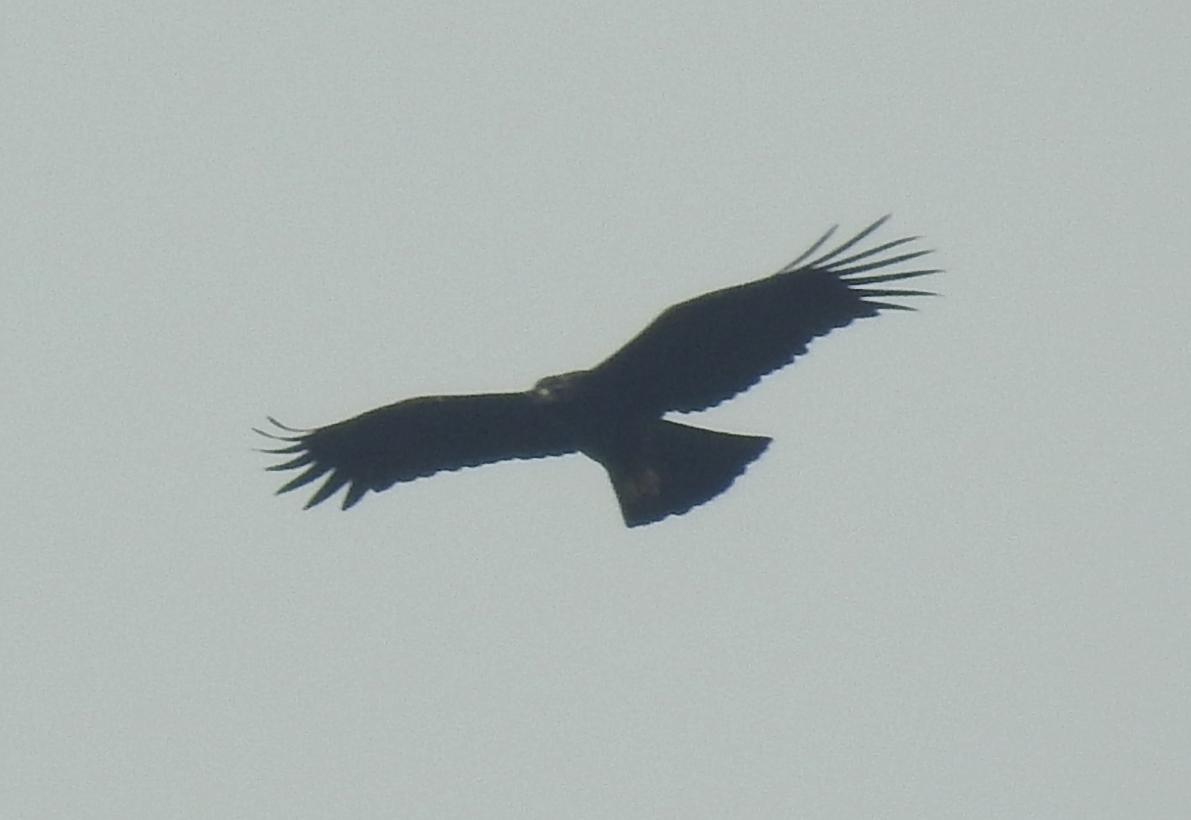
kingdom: Animalia
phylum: Chordata
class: Aves
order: Accipitriformes
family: Accipitridae
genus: Ictinaetus
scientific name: Ictinaetus malayensis
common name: Black eagle
